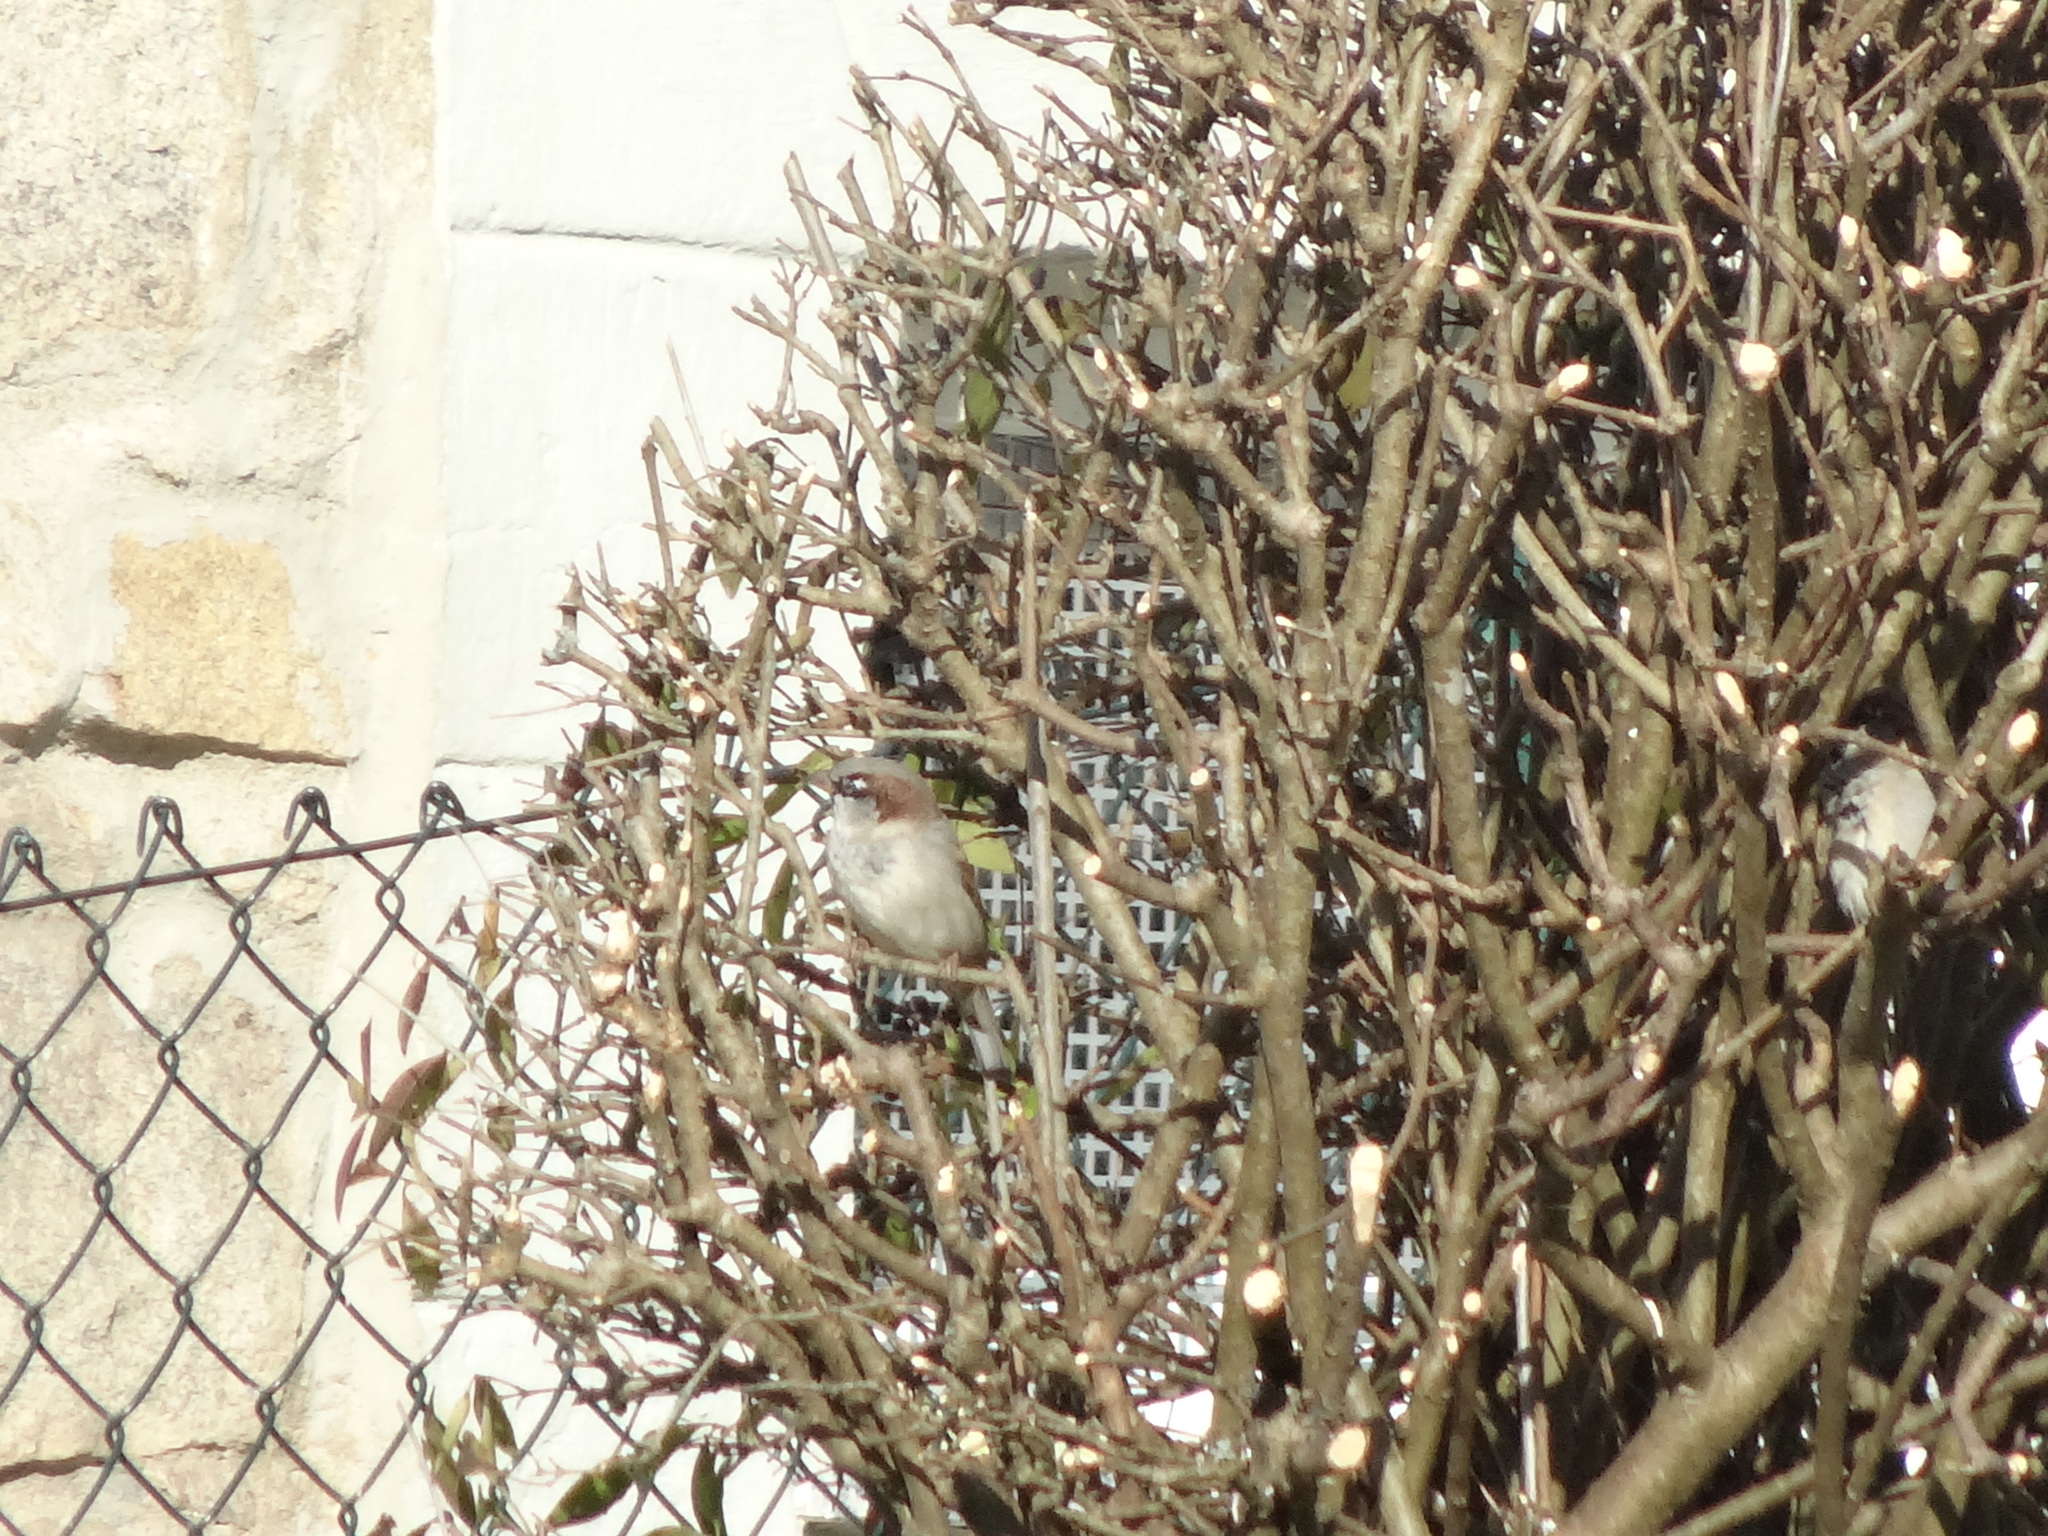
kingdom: Animalia
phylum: Chordata
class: Aves
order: Passeriformes
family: Passeridae
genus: Passer
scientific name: Passer domesticus
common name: House sparrow
